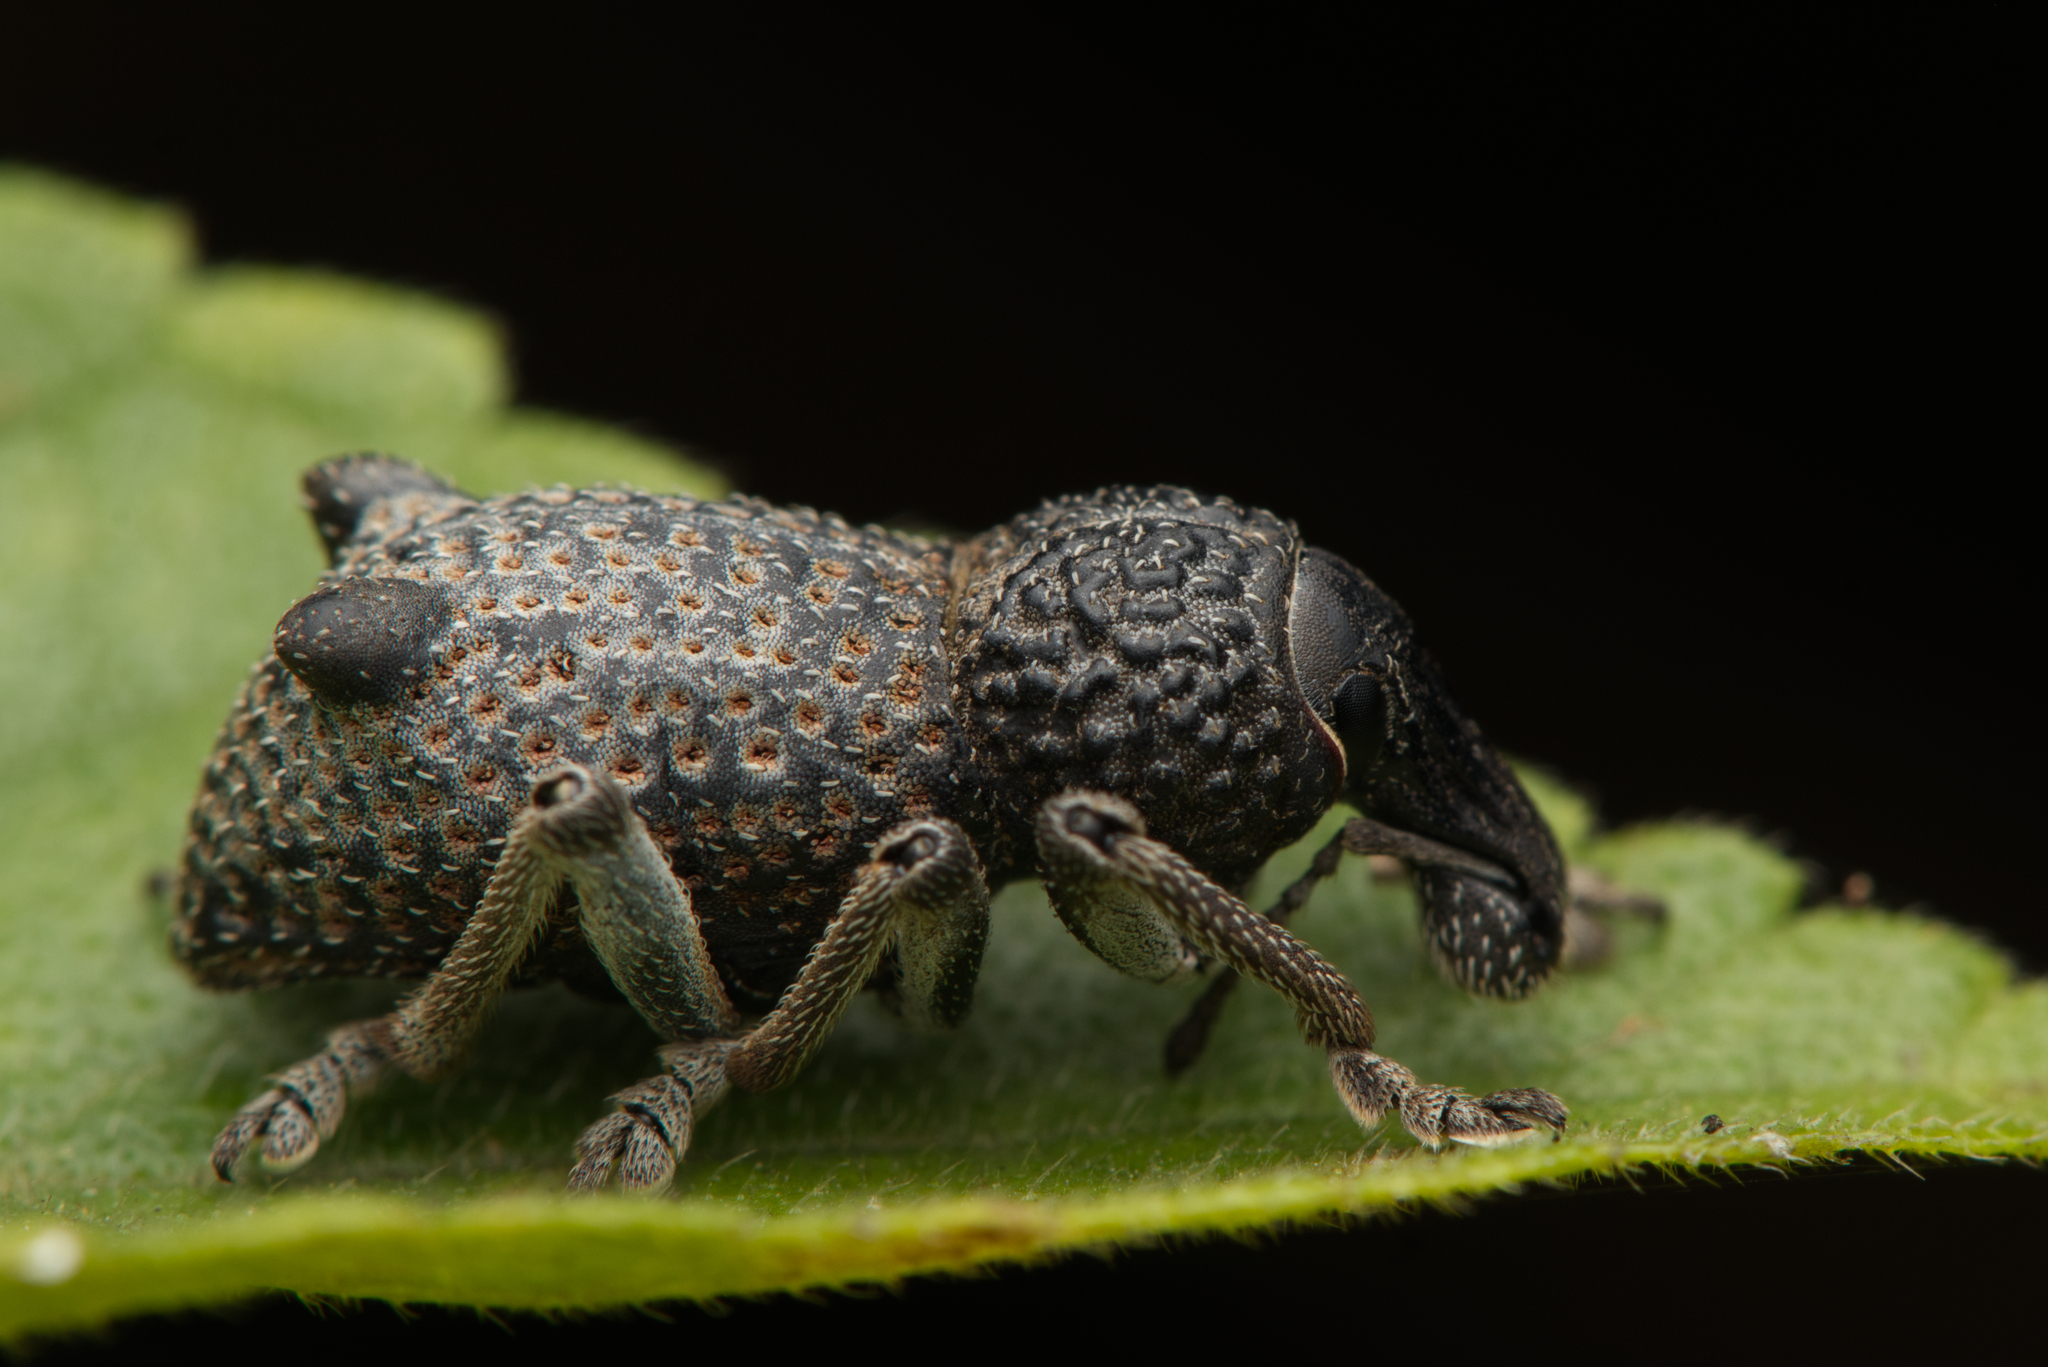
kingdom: Animalia
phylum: Arthropoda
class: Insecta
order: Coleoptera
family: Curculionidae
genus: Zymaus
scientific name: Zymaus binodosus
